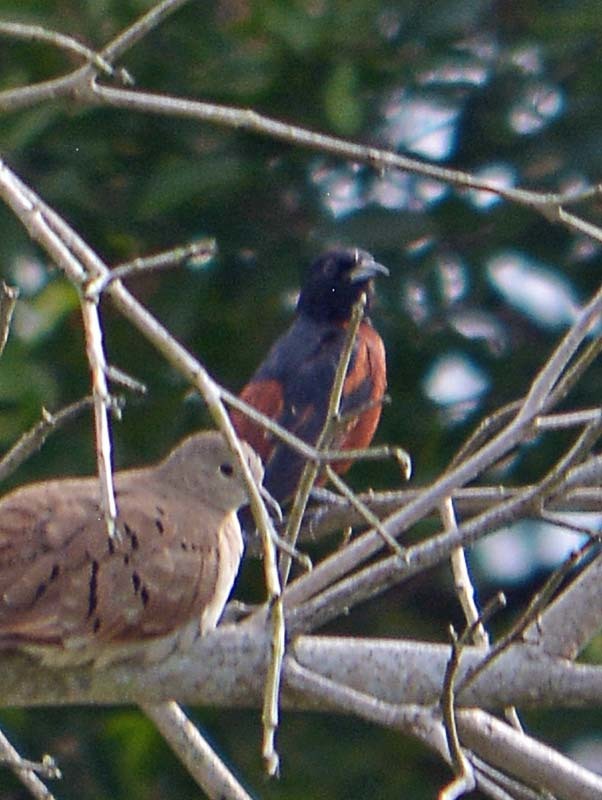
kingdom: Animalia
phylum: Chordata
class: Aves
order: Passeriformes
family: Icteridae
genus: Icterus
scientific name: Icterus spurius
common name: Orchard oriole
